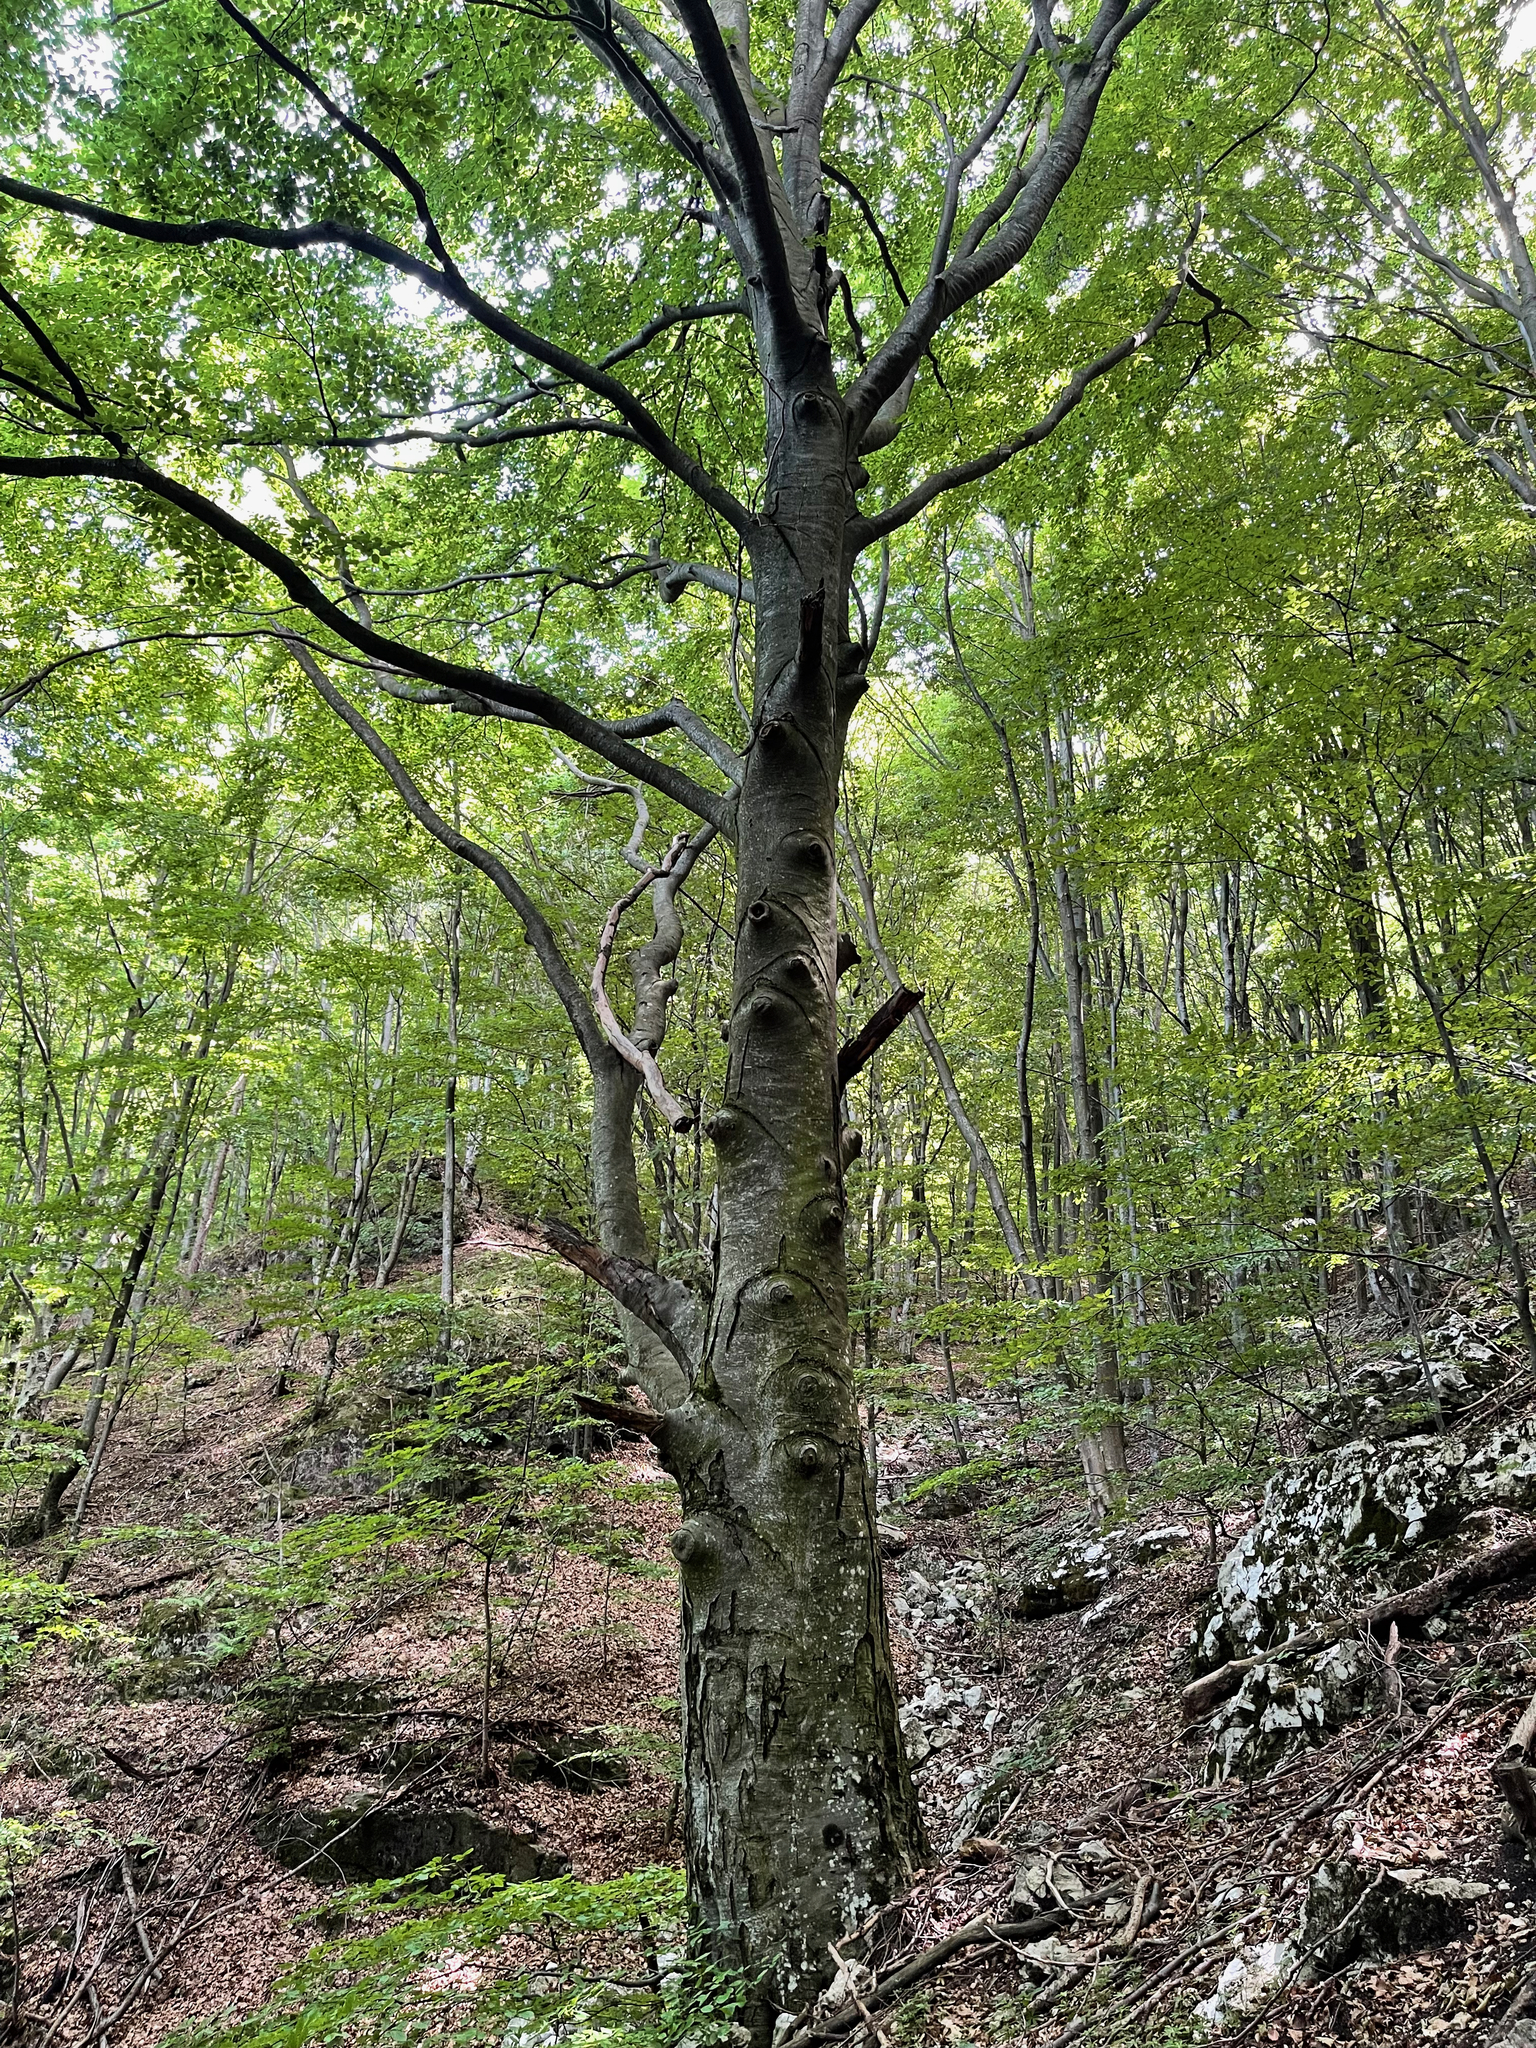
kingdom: Plantae
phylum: Tracheophyta
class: Magnoliopsida
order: Fagales
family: Fagaceae
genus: Fagus
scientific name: Fagus sylvatica
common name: Beech
